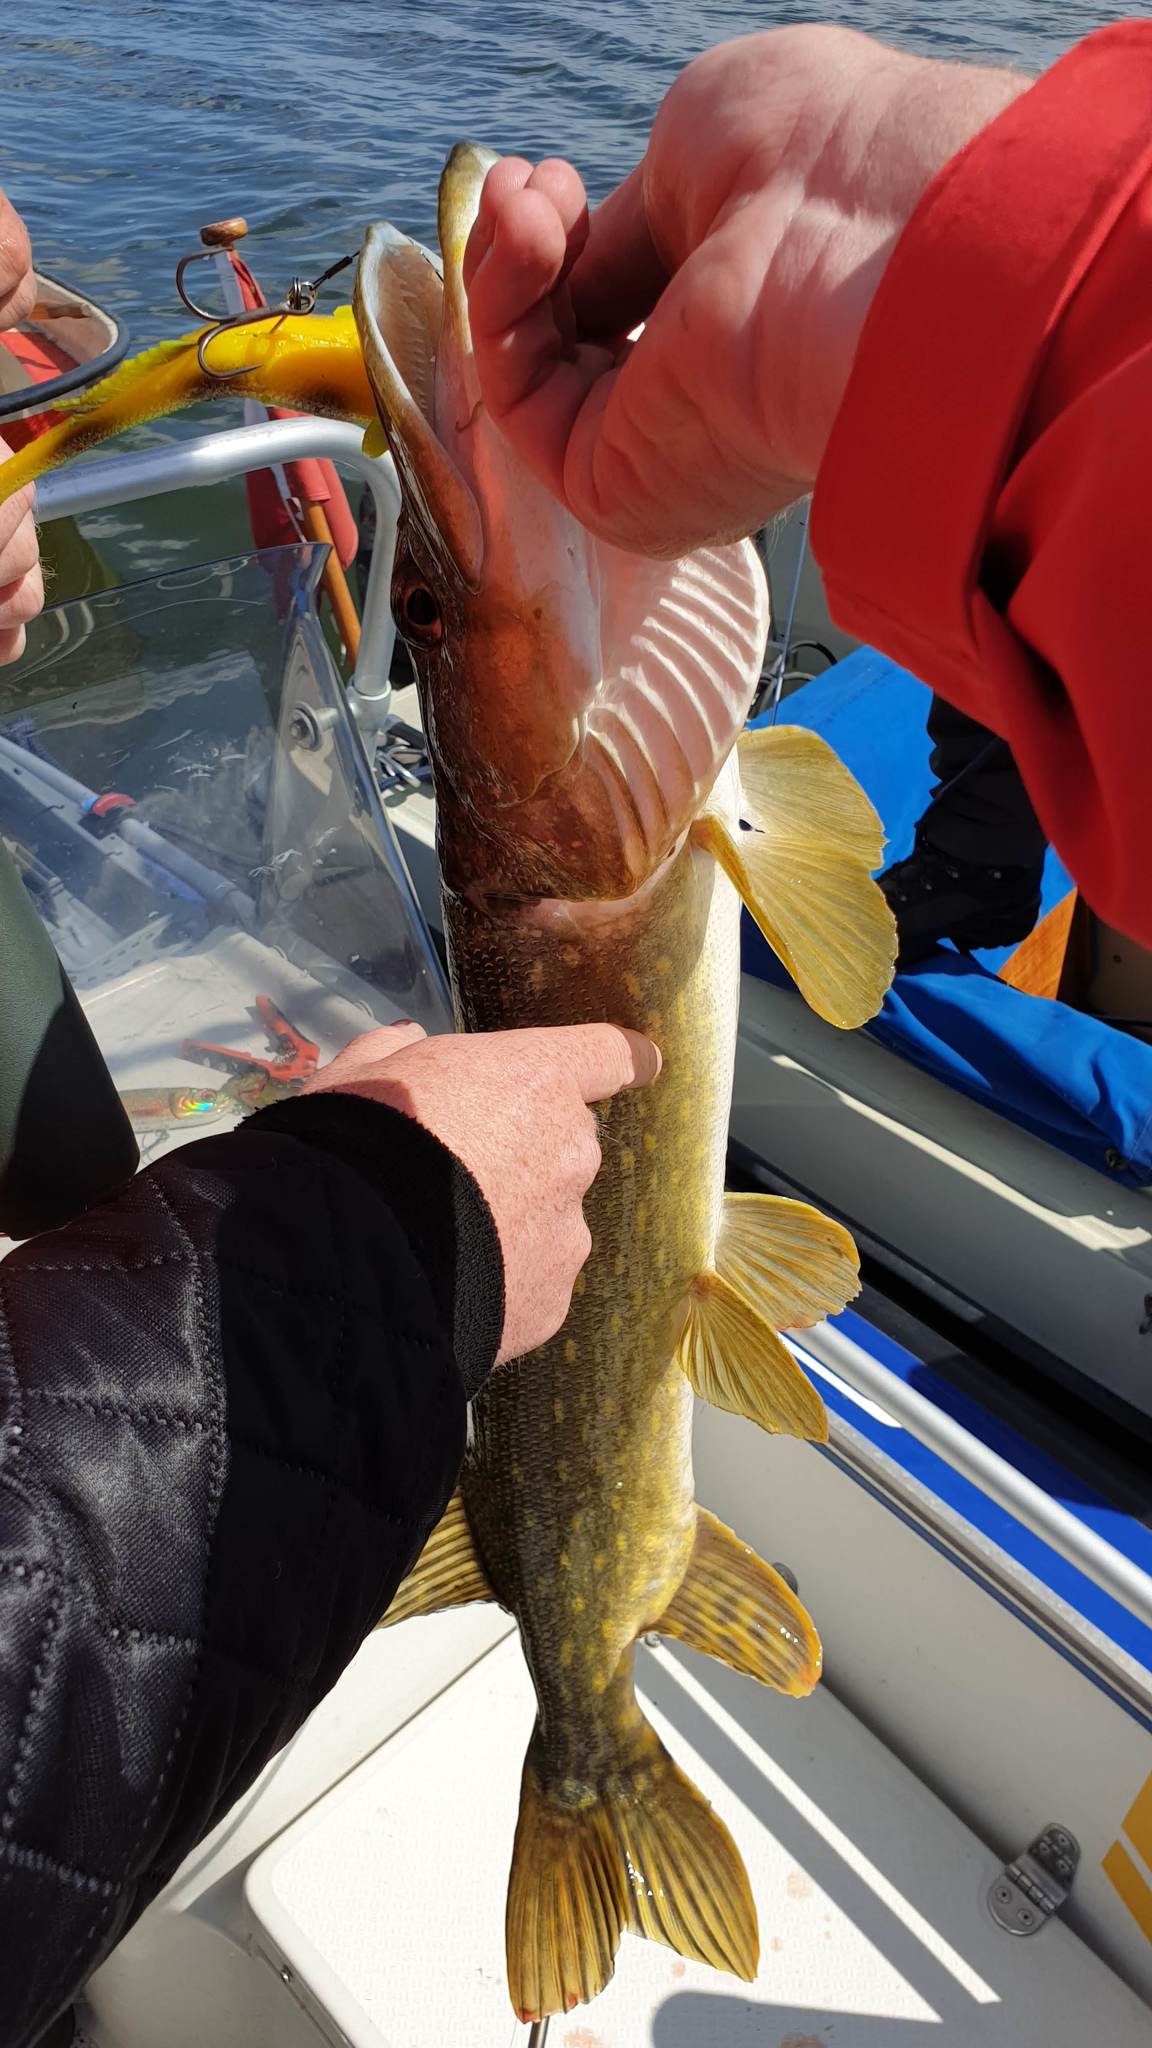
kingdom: Animalia
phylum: Chordata
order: Esociformes
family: Esocidae
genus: Esox
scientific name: Esox lucius
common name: Northern pike
